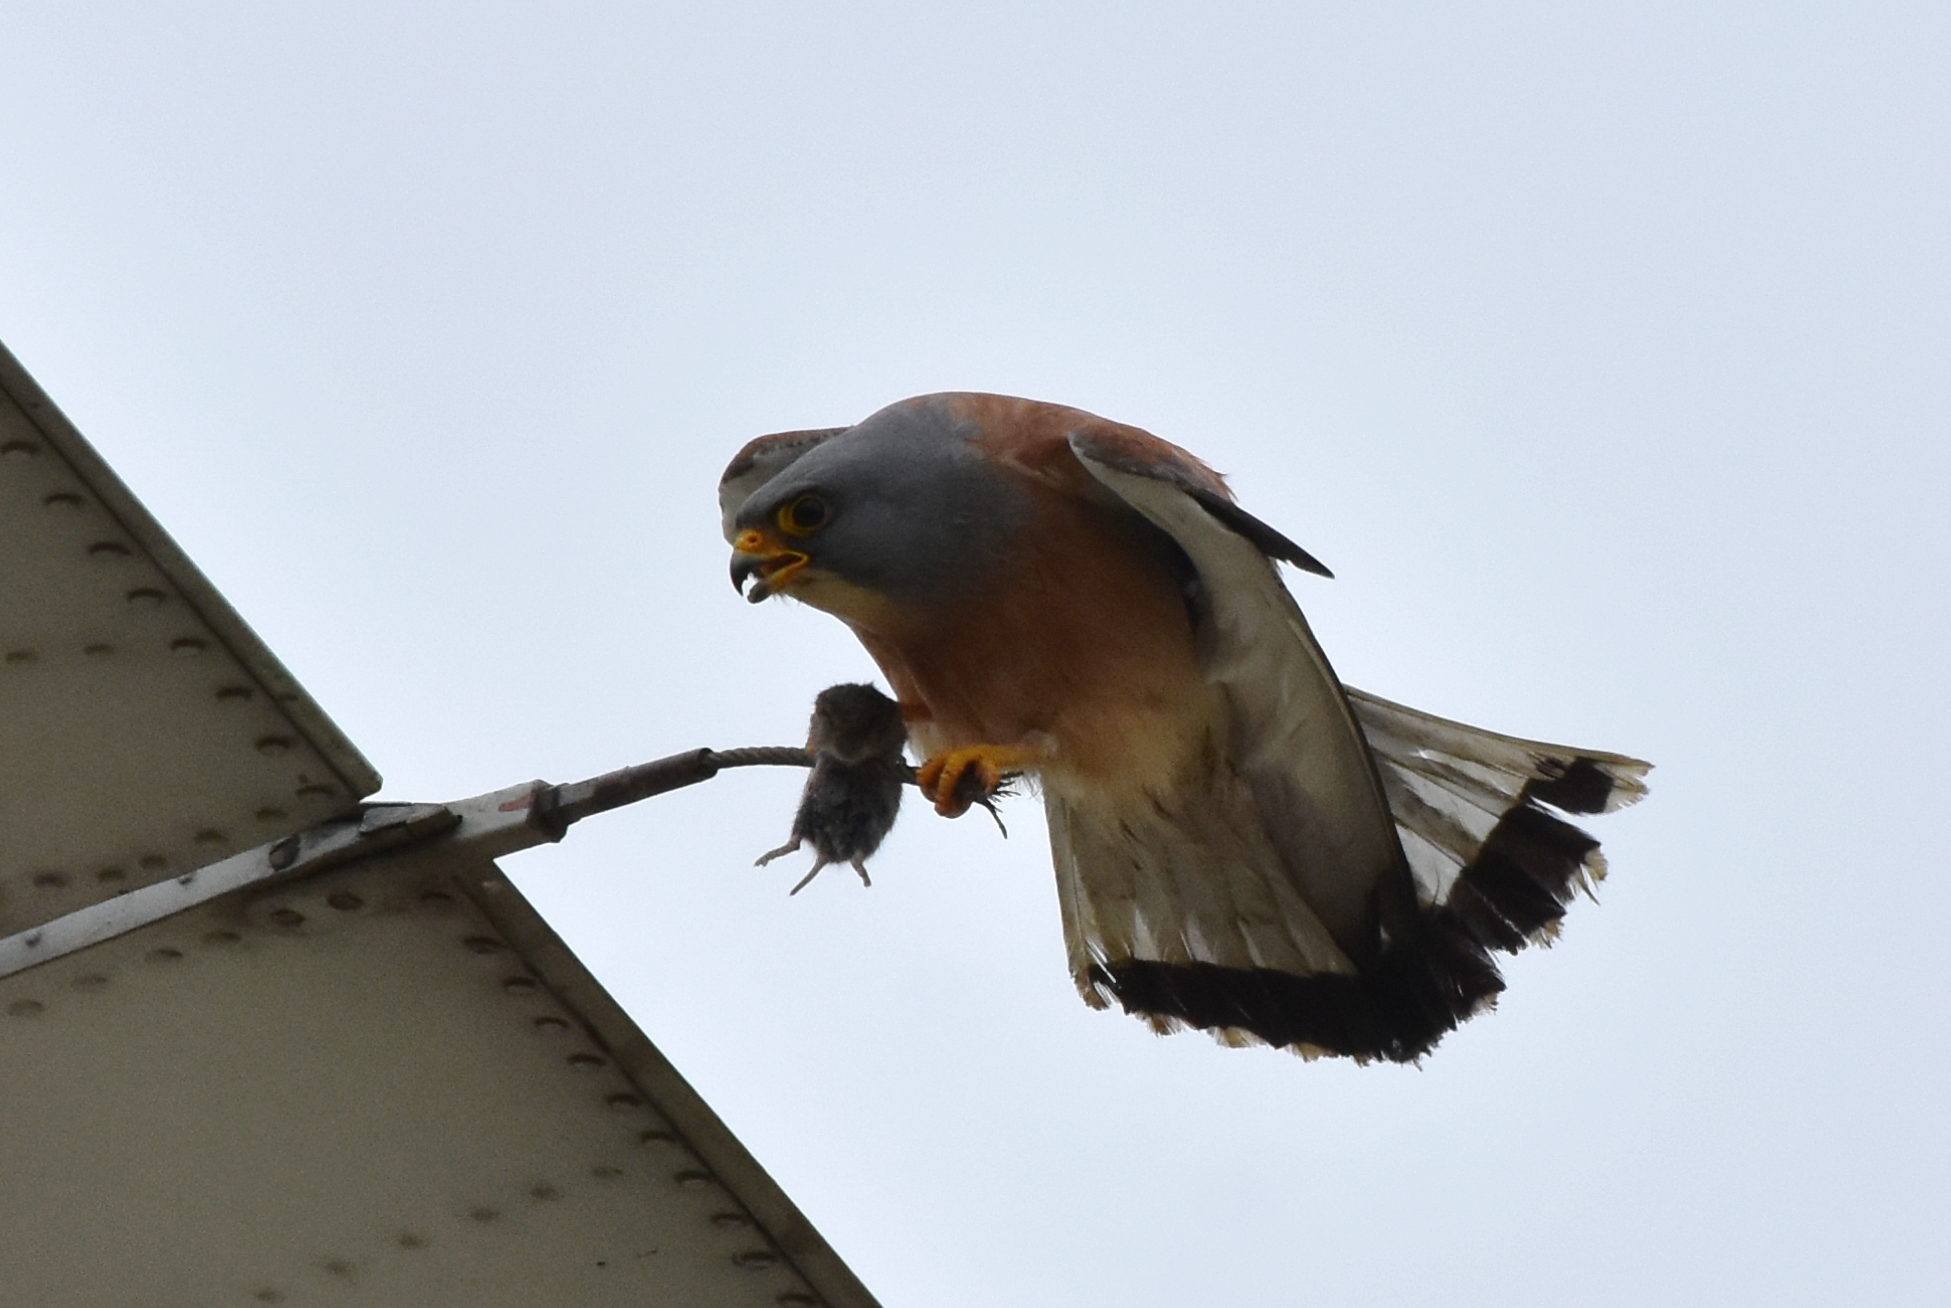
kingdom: Animalia
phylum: Chordata
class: Aves
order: Falconiformes
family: Falconidae
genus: Falco
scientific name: Falco naumanni
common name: Lesser kestrel
